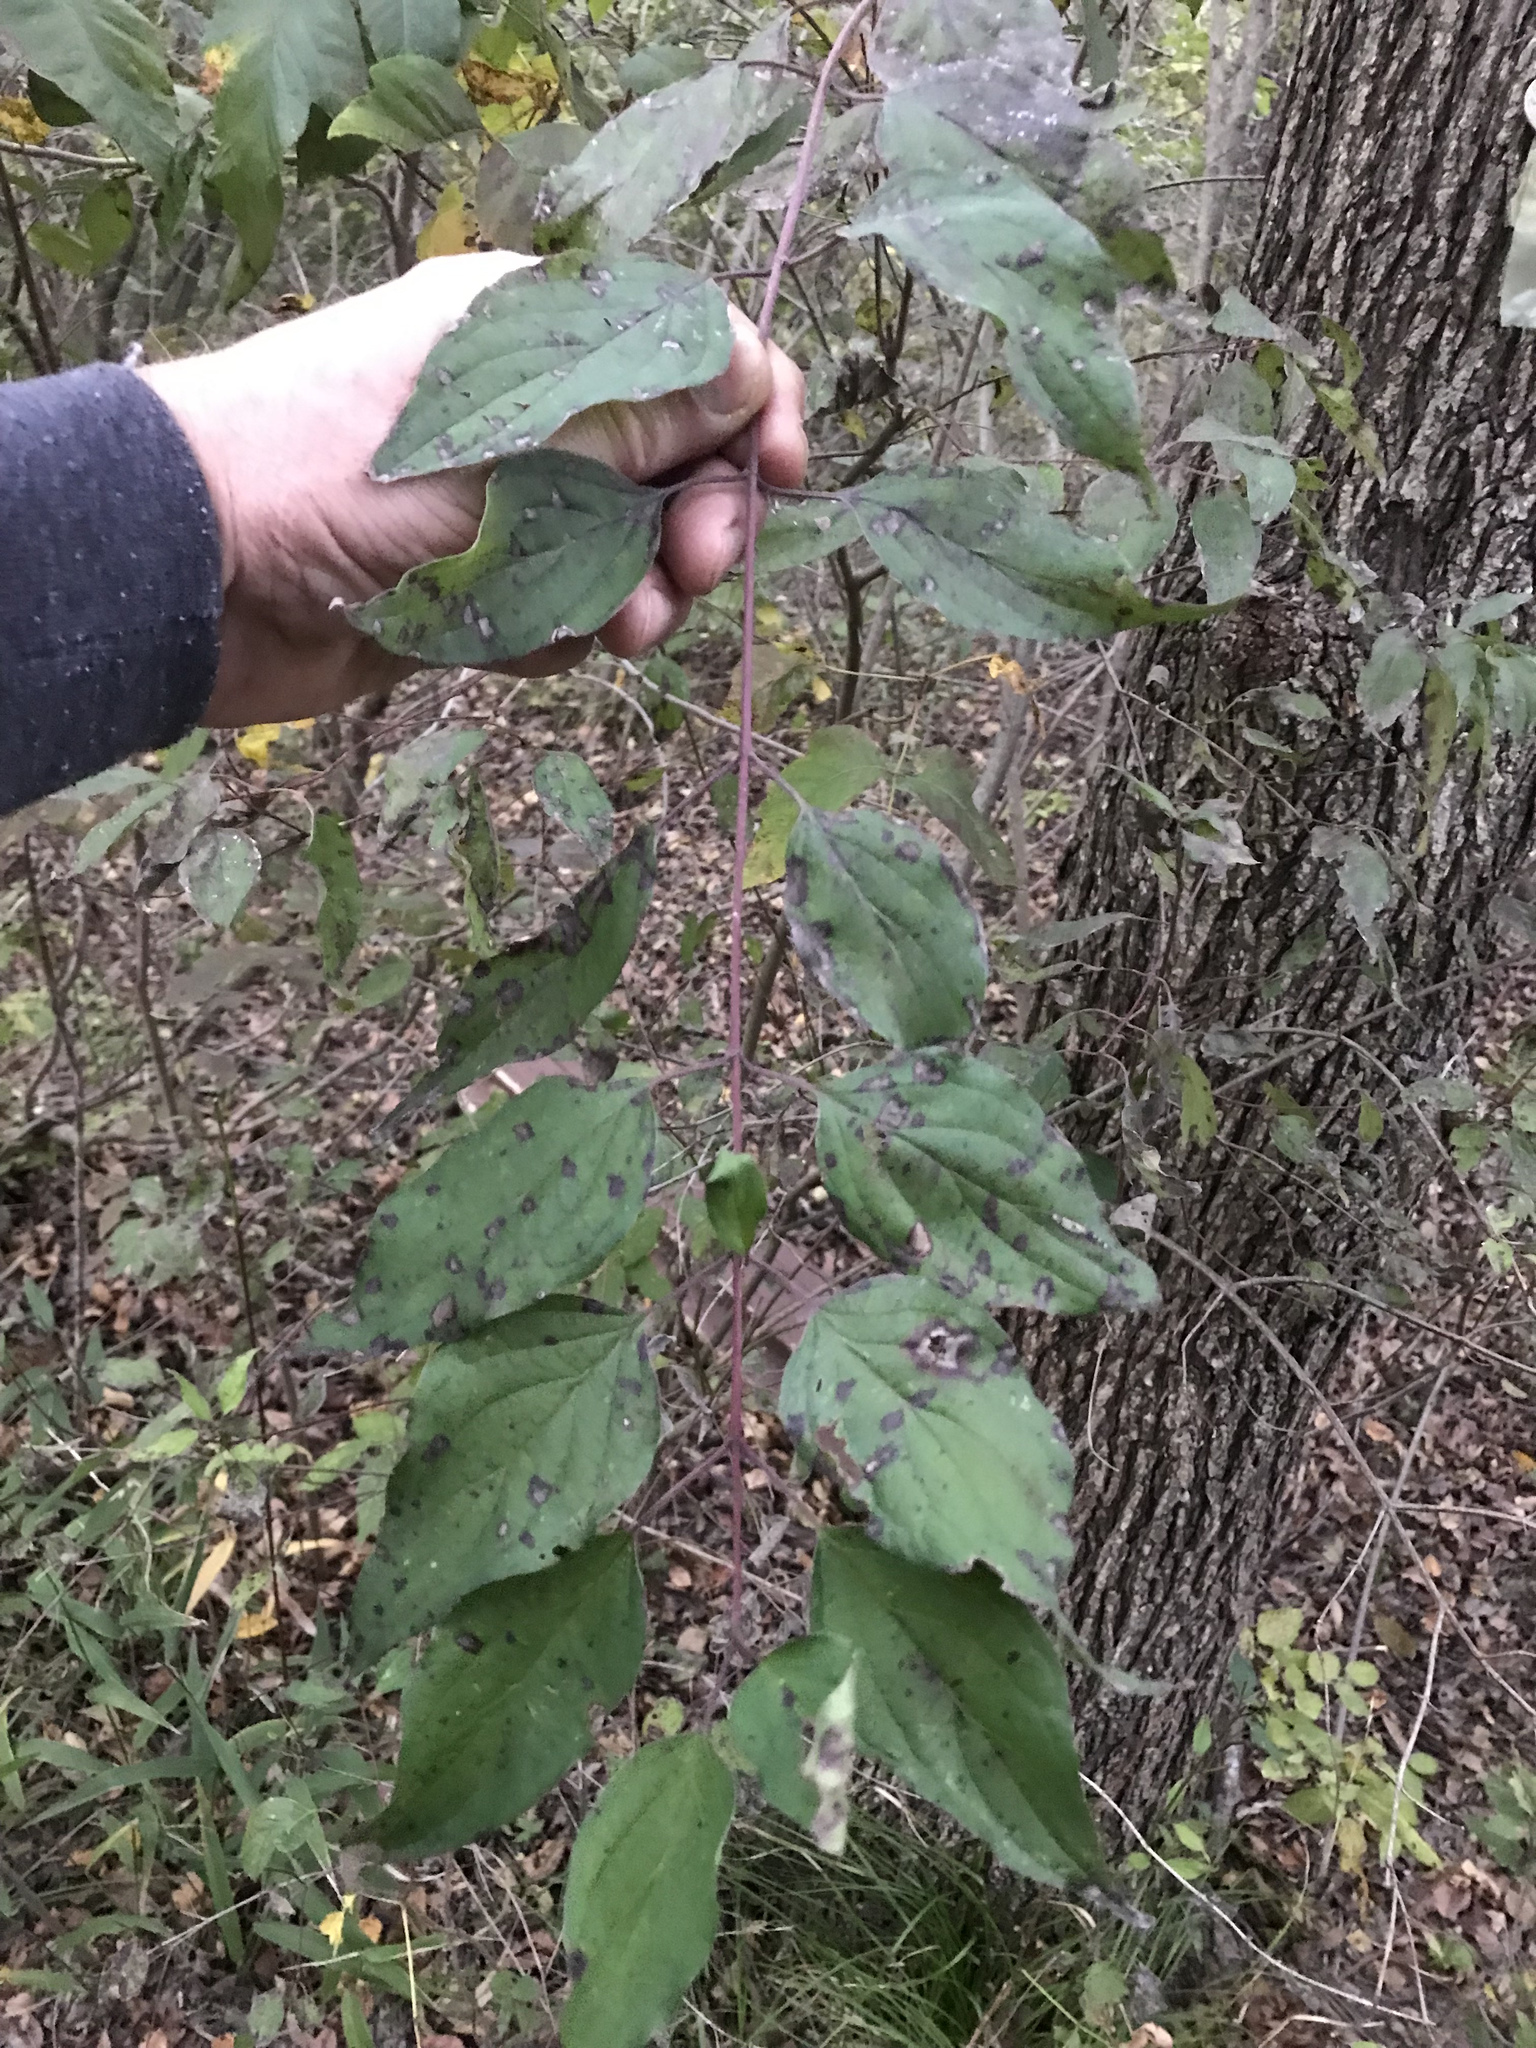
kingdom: Plantae
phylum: Tracheophyta
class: Magnoliopsida
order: Cornales
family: Cornaceae
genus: Cornus
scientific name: Cornus drummondii
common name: Rough-leaf dogwood
